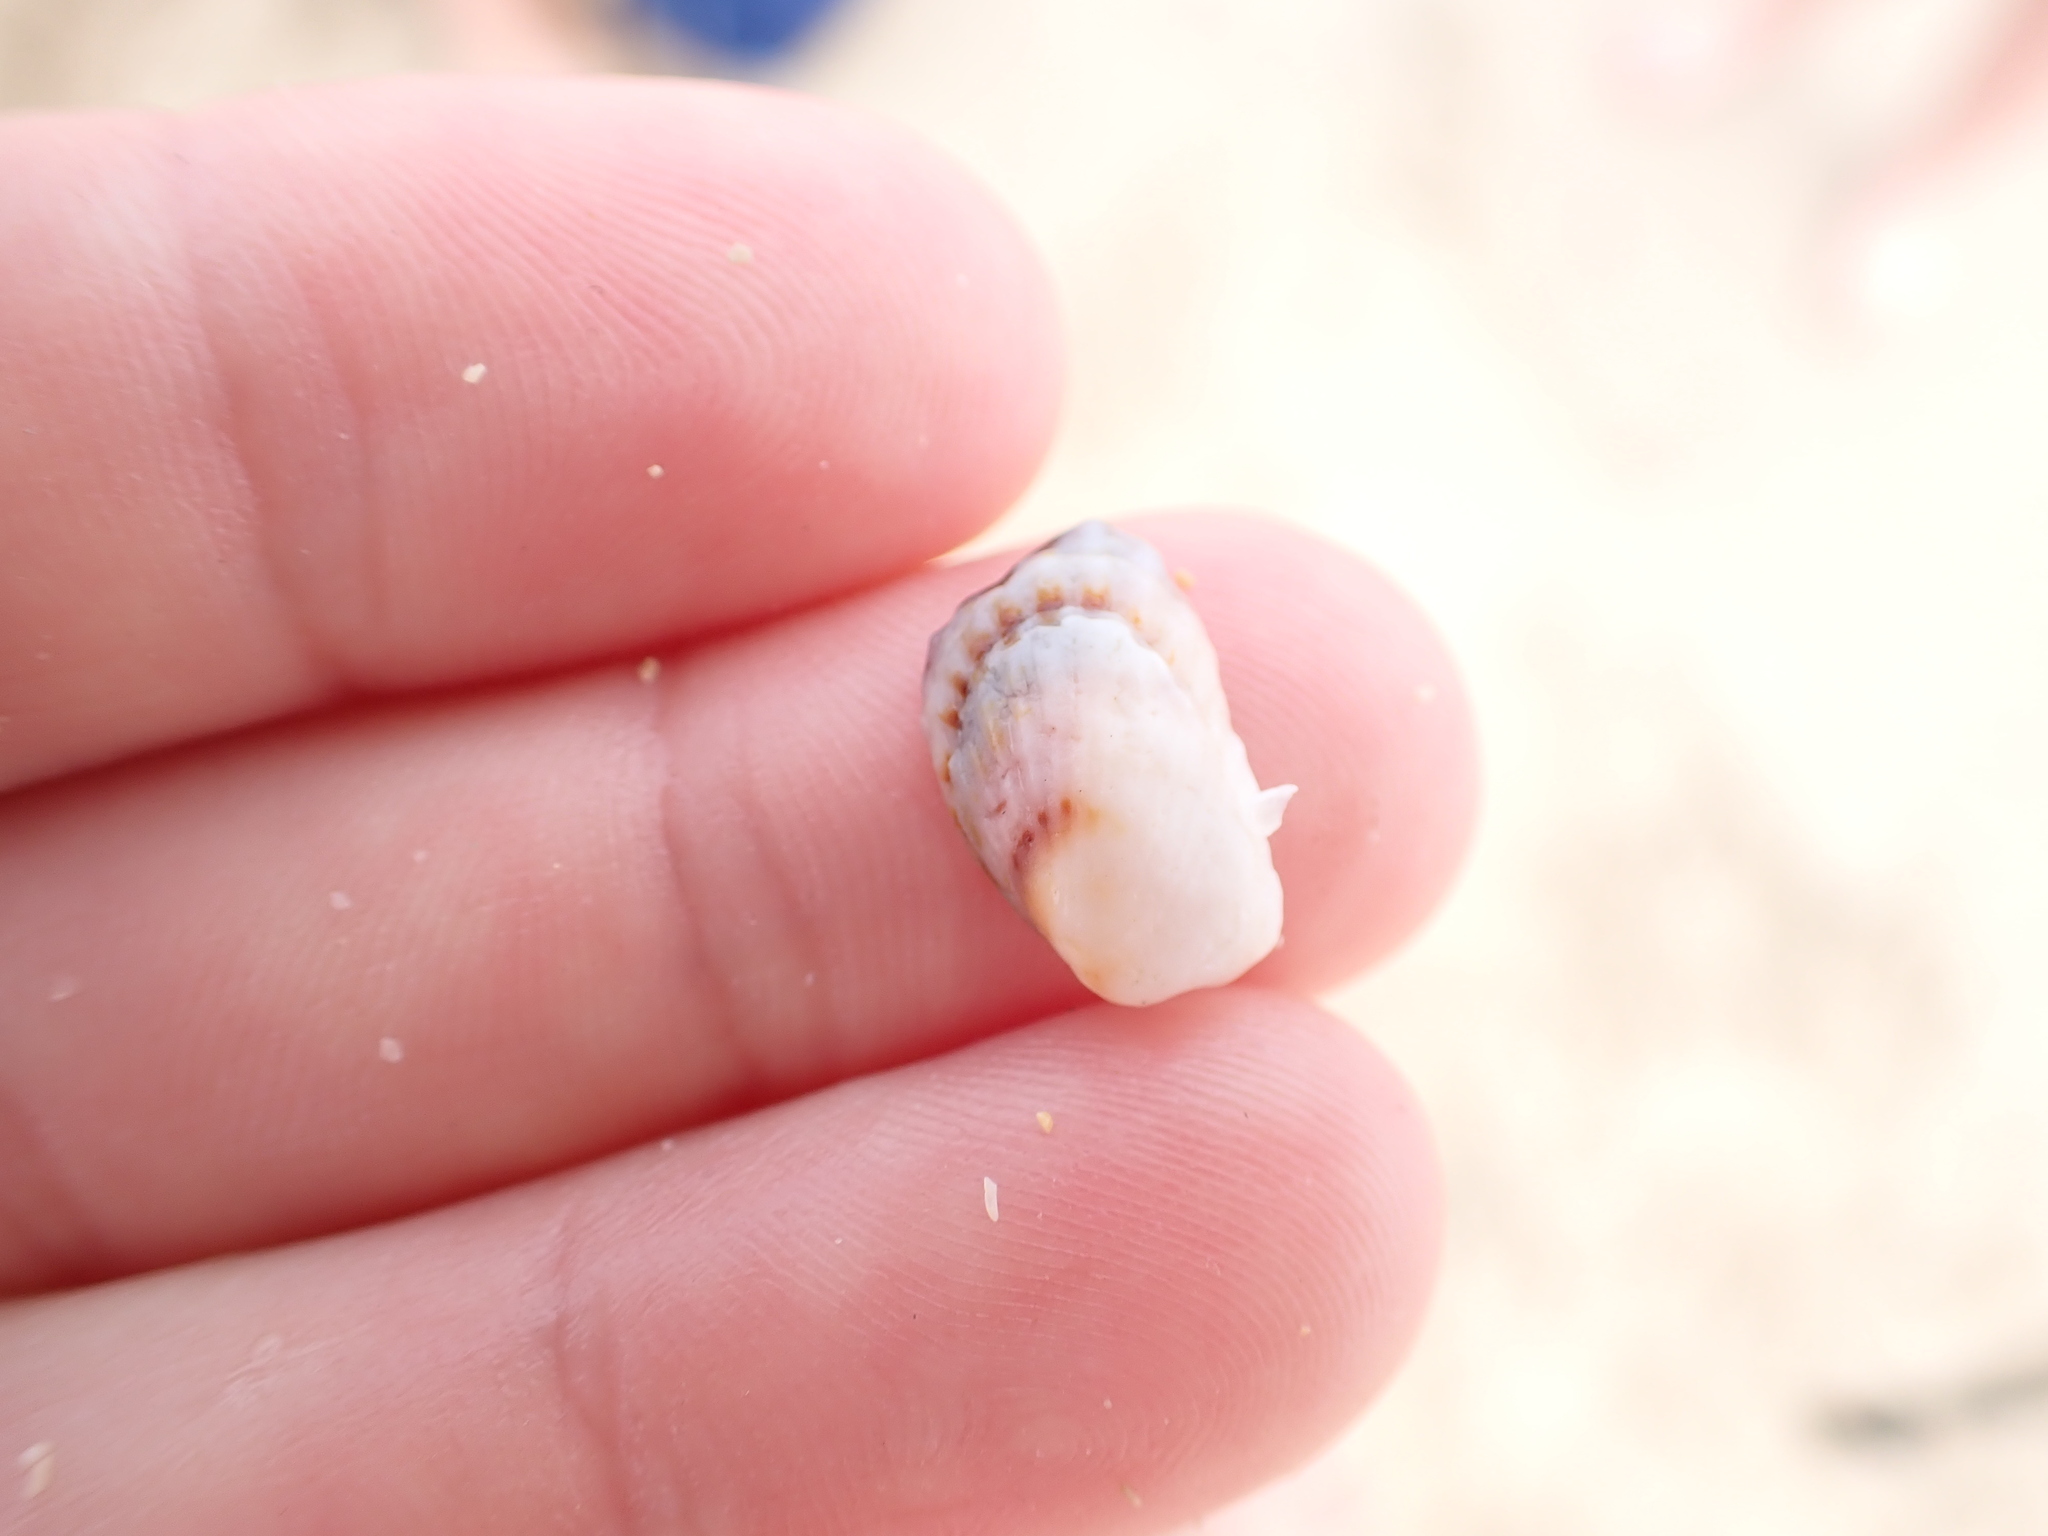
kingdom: Animalia
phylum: Mollusca
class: Bivalvia
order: Carditida
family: Carditidae
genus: Cardita
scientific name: Cardita calyculata
